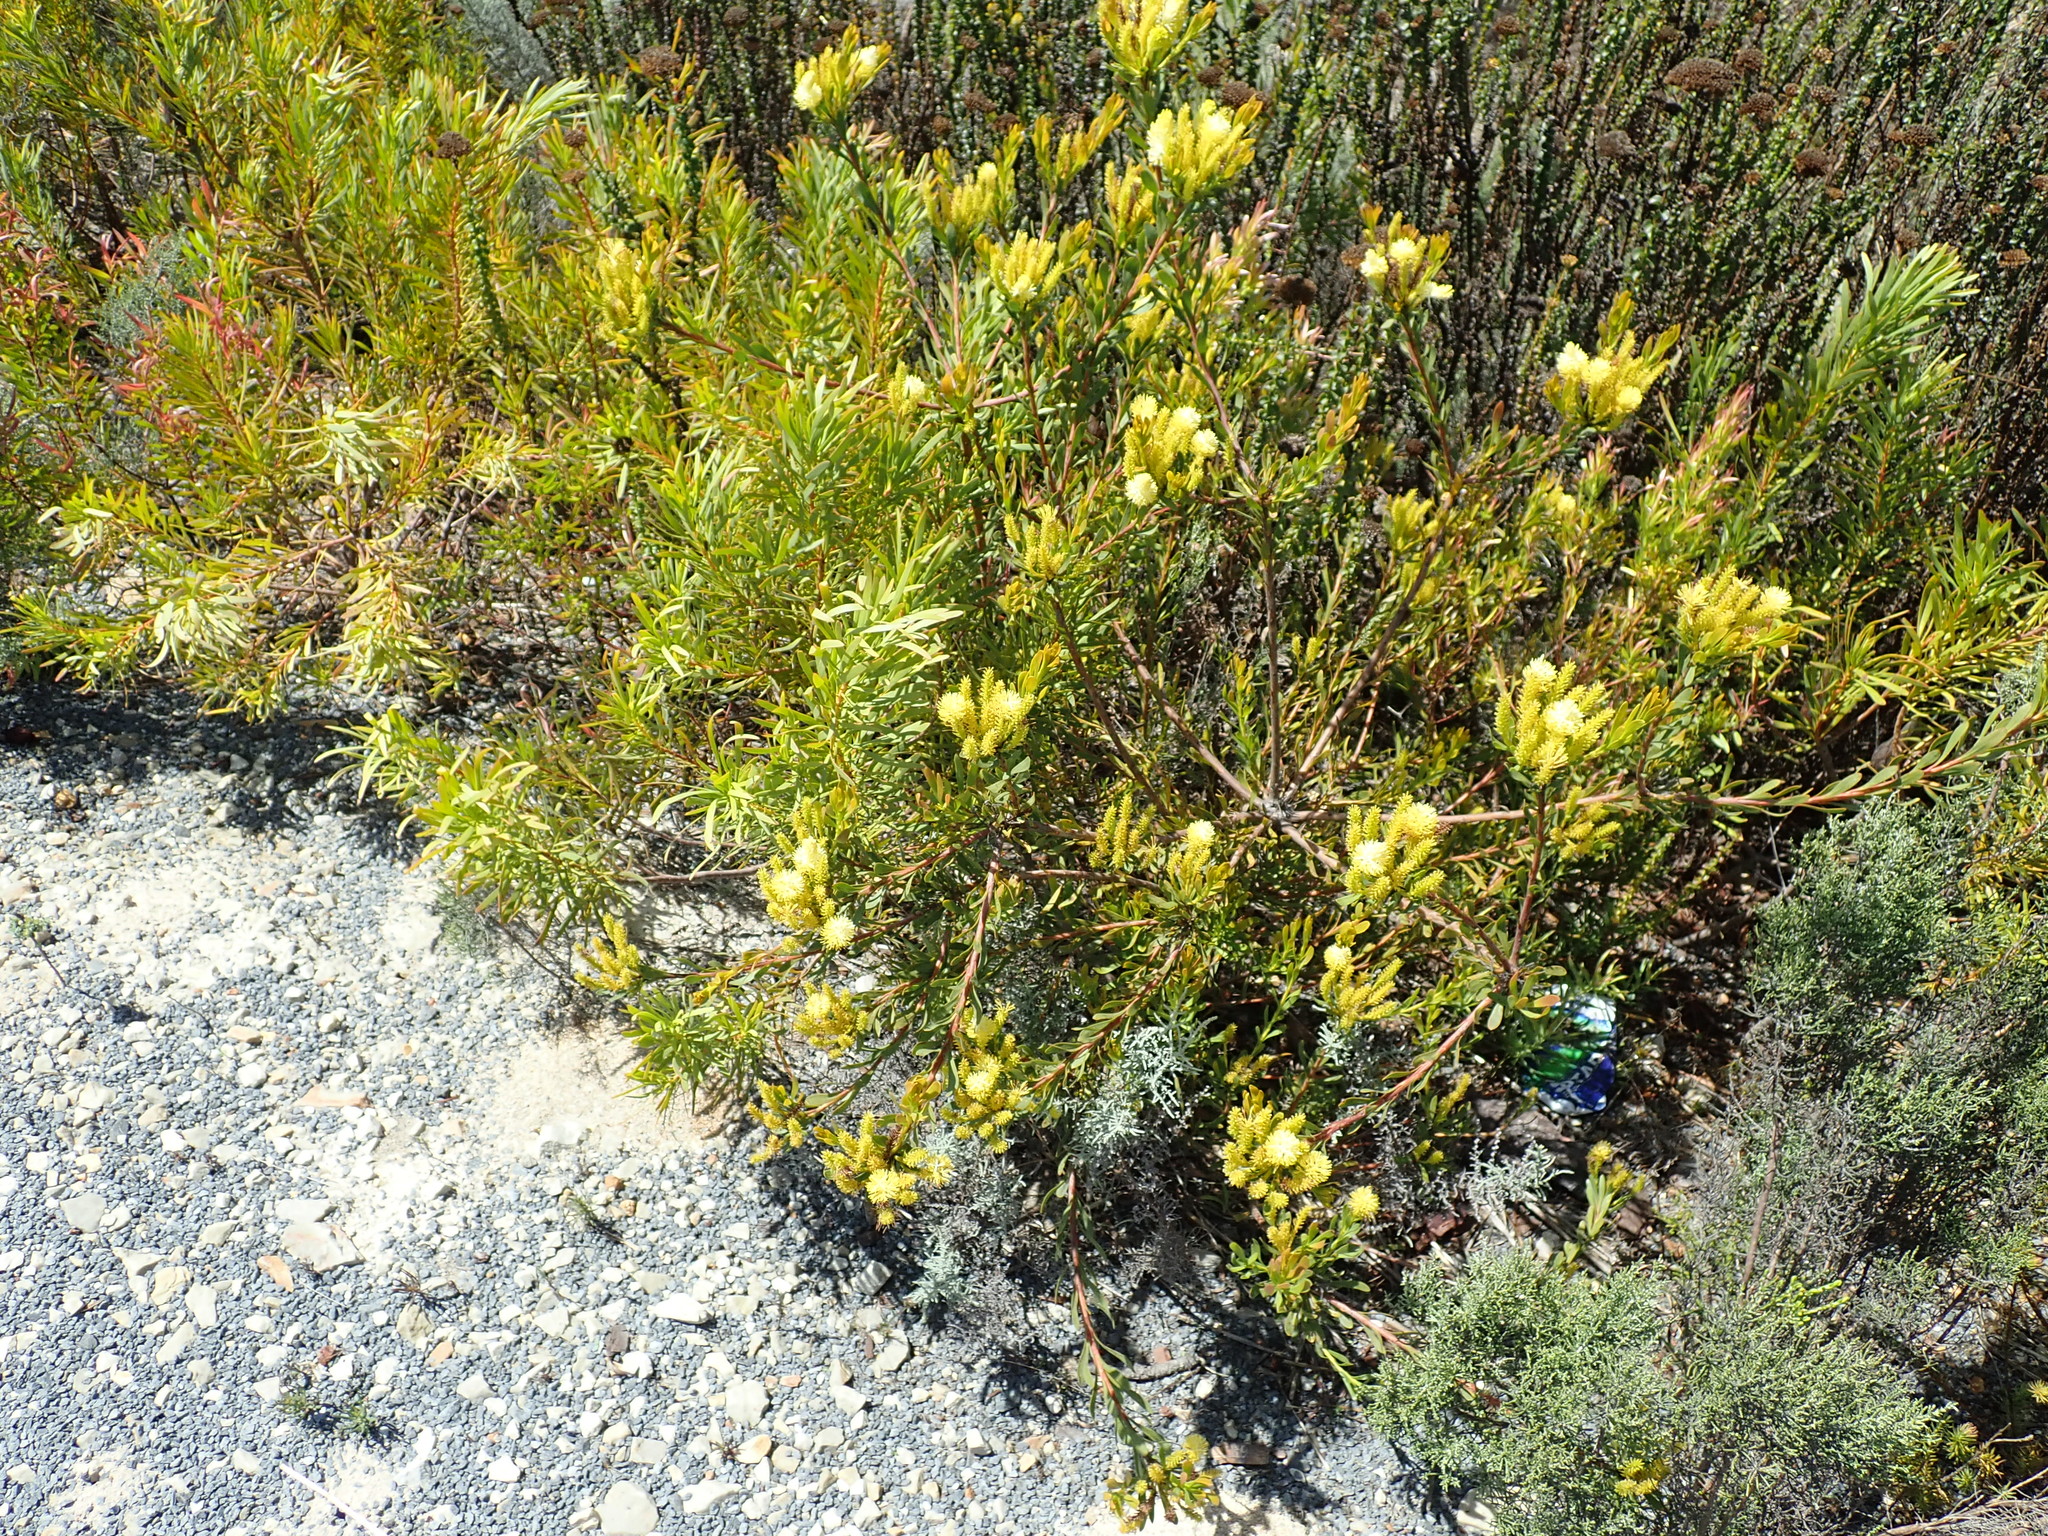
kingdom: Plantae
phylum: Tracheophyta
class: Magnoliopsida
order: Proteales
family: Proteaceae
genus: Aulax
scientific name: Aulax umbellata
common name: Broad-leaf featherbush
